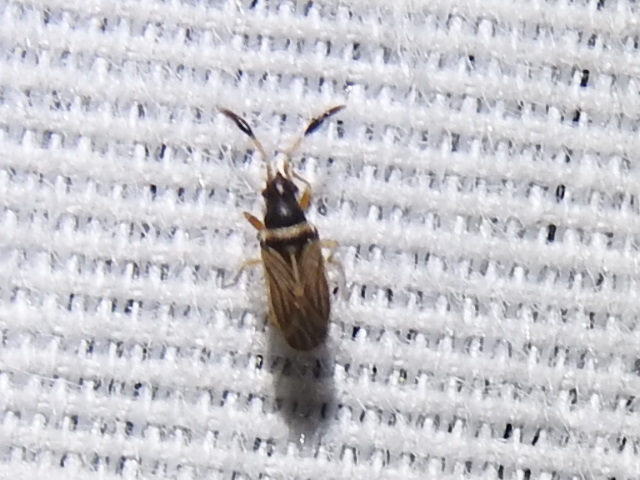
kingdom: Animalia
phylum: Arthropoda
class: Insecta
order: Hemiptera
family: Rhyparochromidae
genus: Ptochiomera
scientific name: Ptochiomera nodosa
